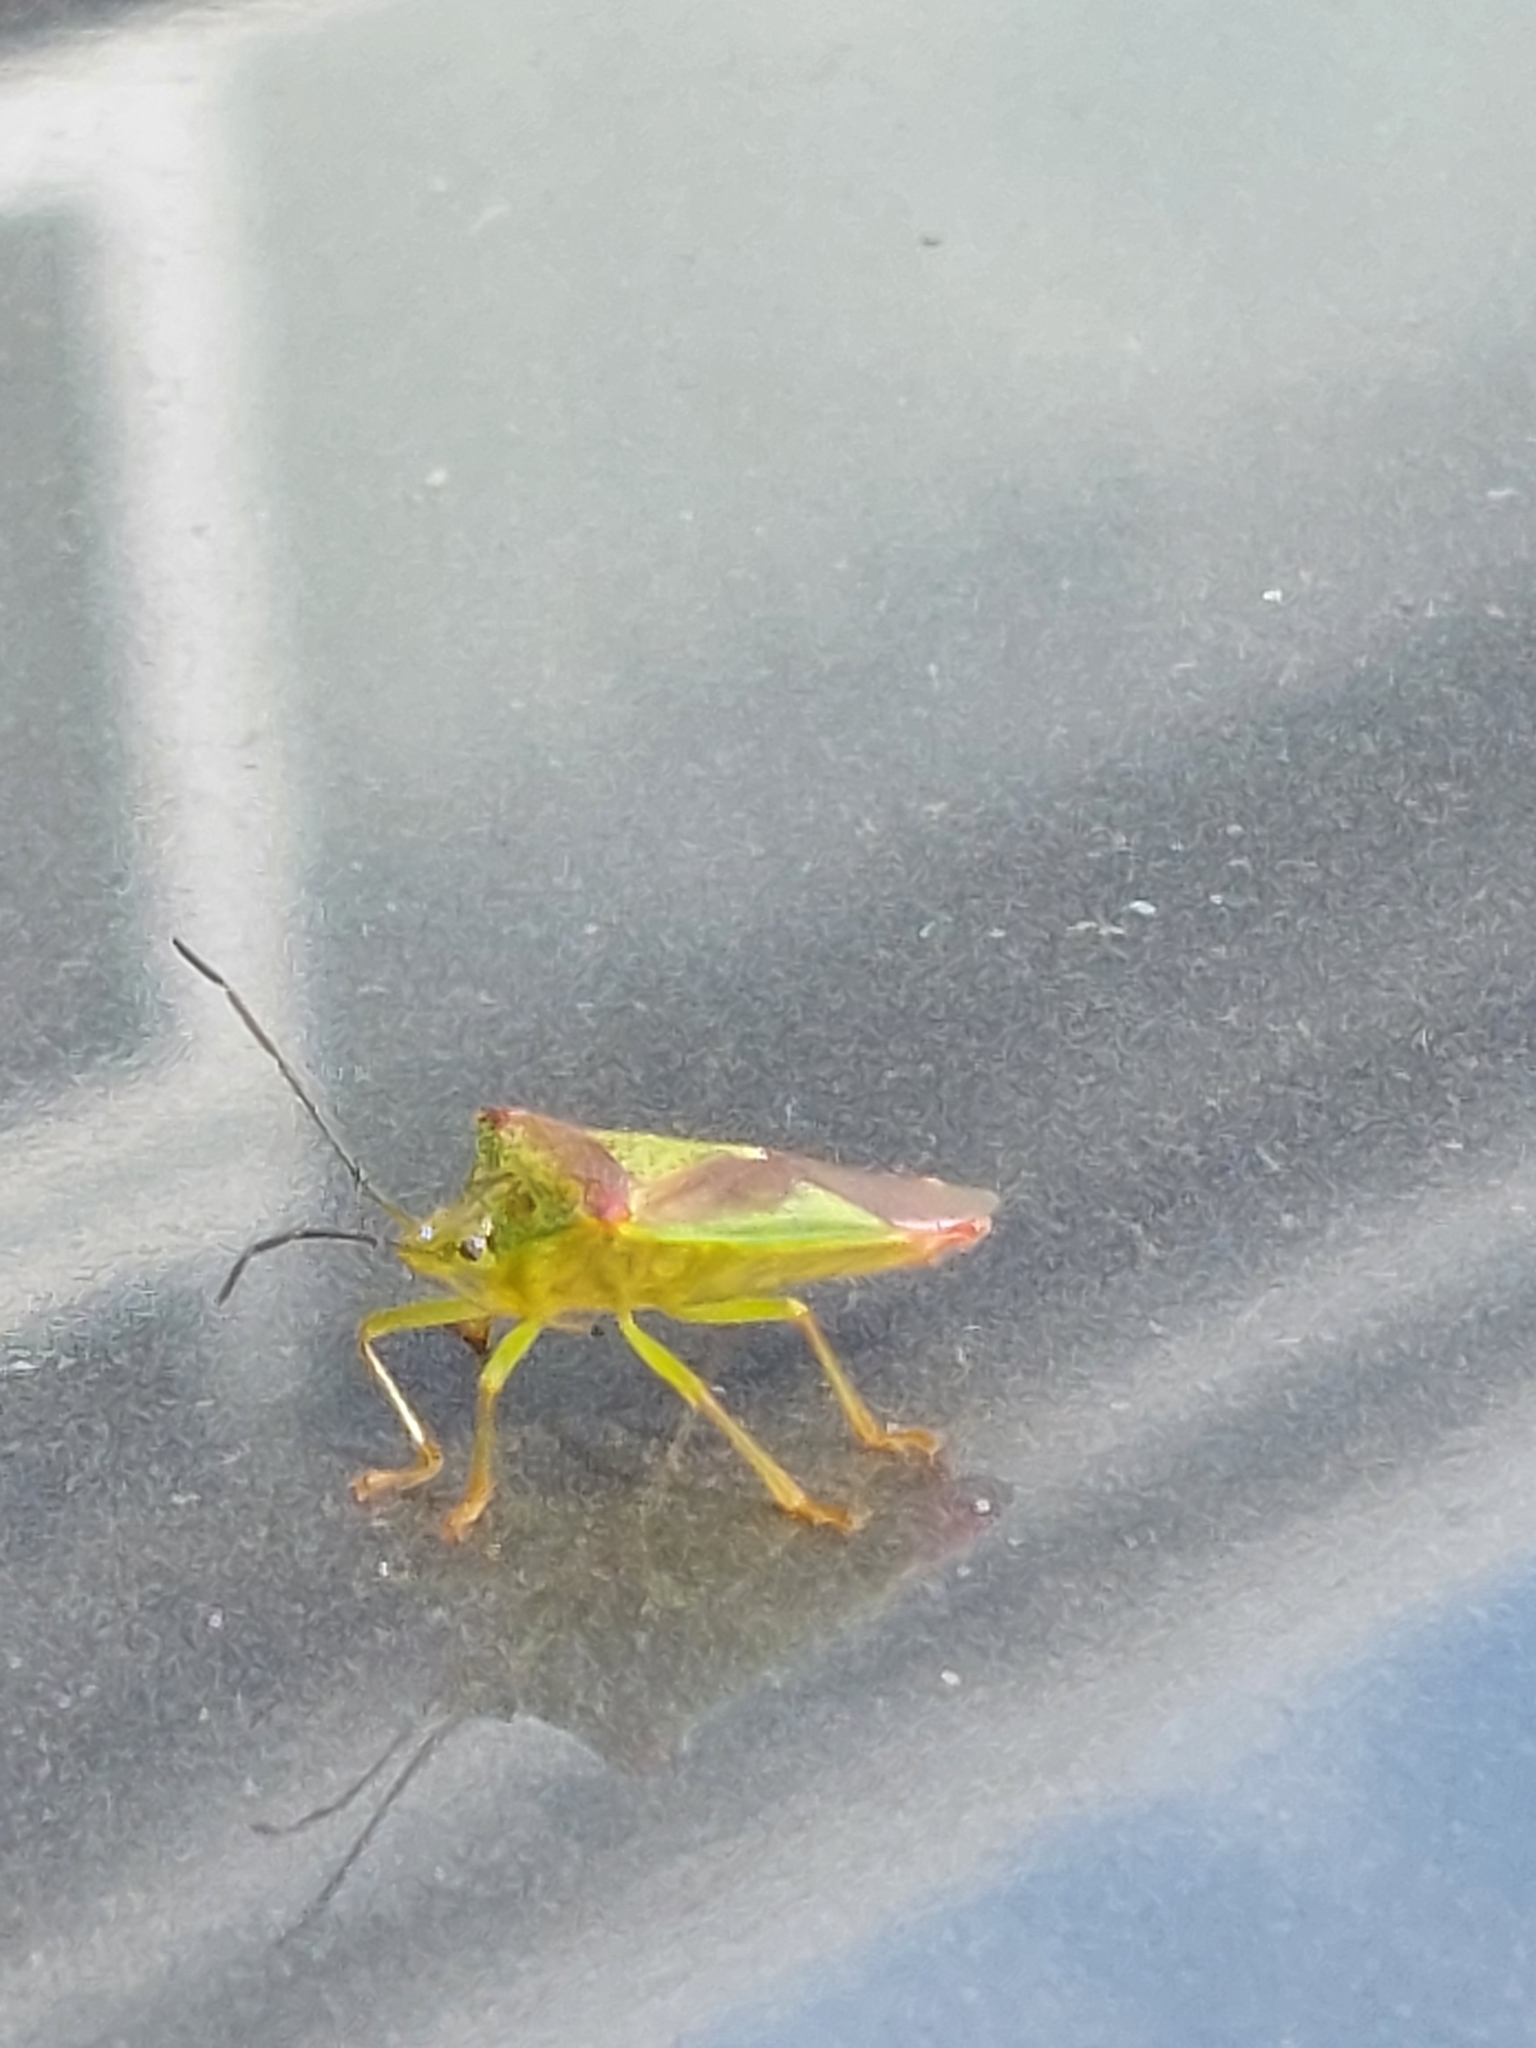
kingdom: Animalia
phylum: Arthropoda
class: Insecta
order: Hemiptera
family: Acanthosomatidae
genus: Acanthosoma
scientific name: Acanthosoma haemorrhoidale
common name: Hawthorn shieldbug
